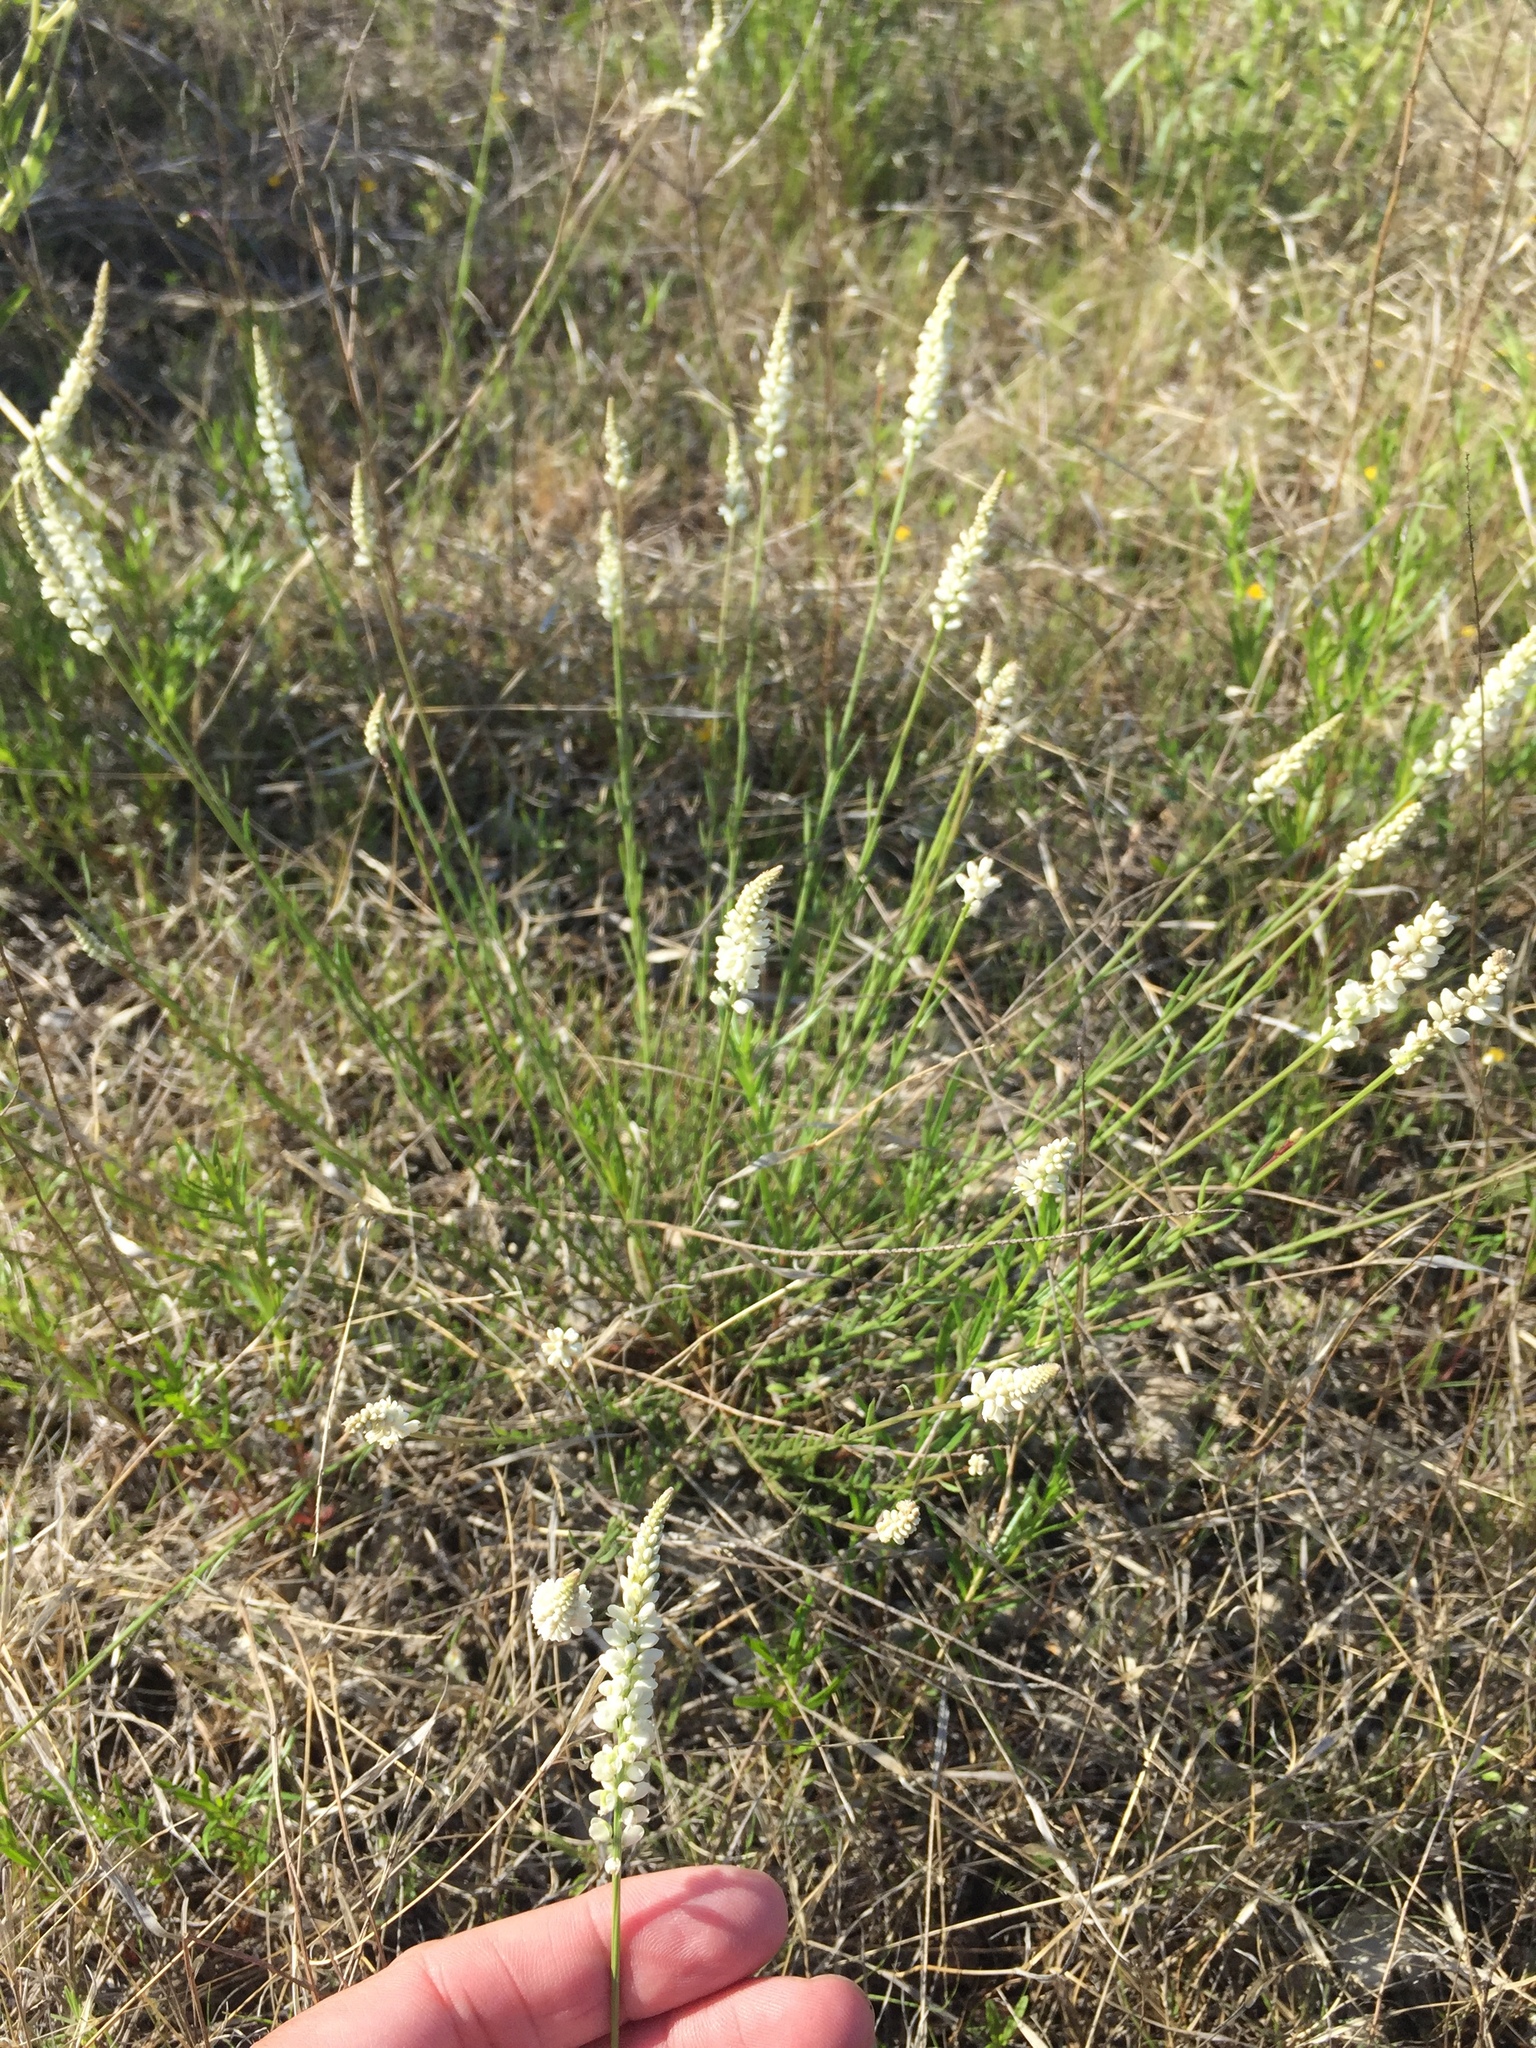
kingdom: Plantae
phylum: Tracheophyta
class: Magnoliopsida
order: Fabales
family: Polygalaceae
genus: Polygala
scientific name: Polygala alba
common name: White milkwort
